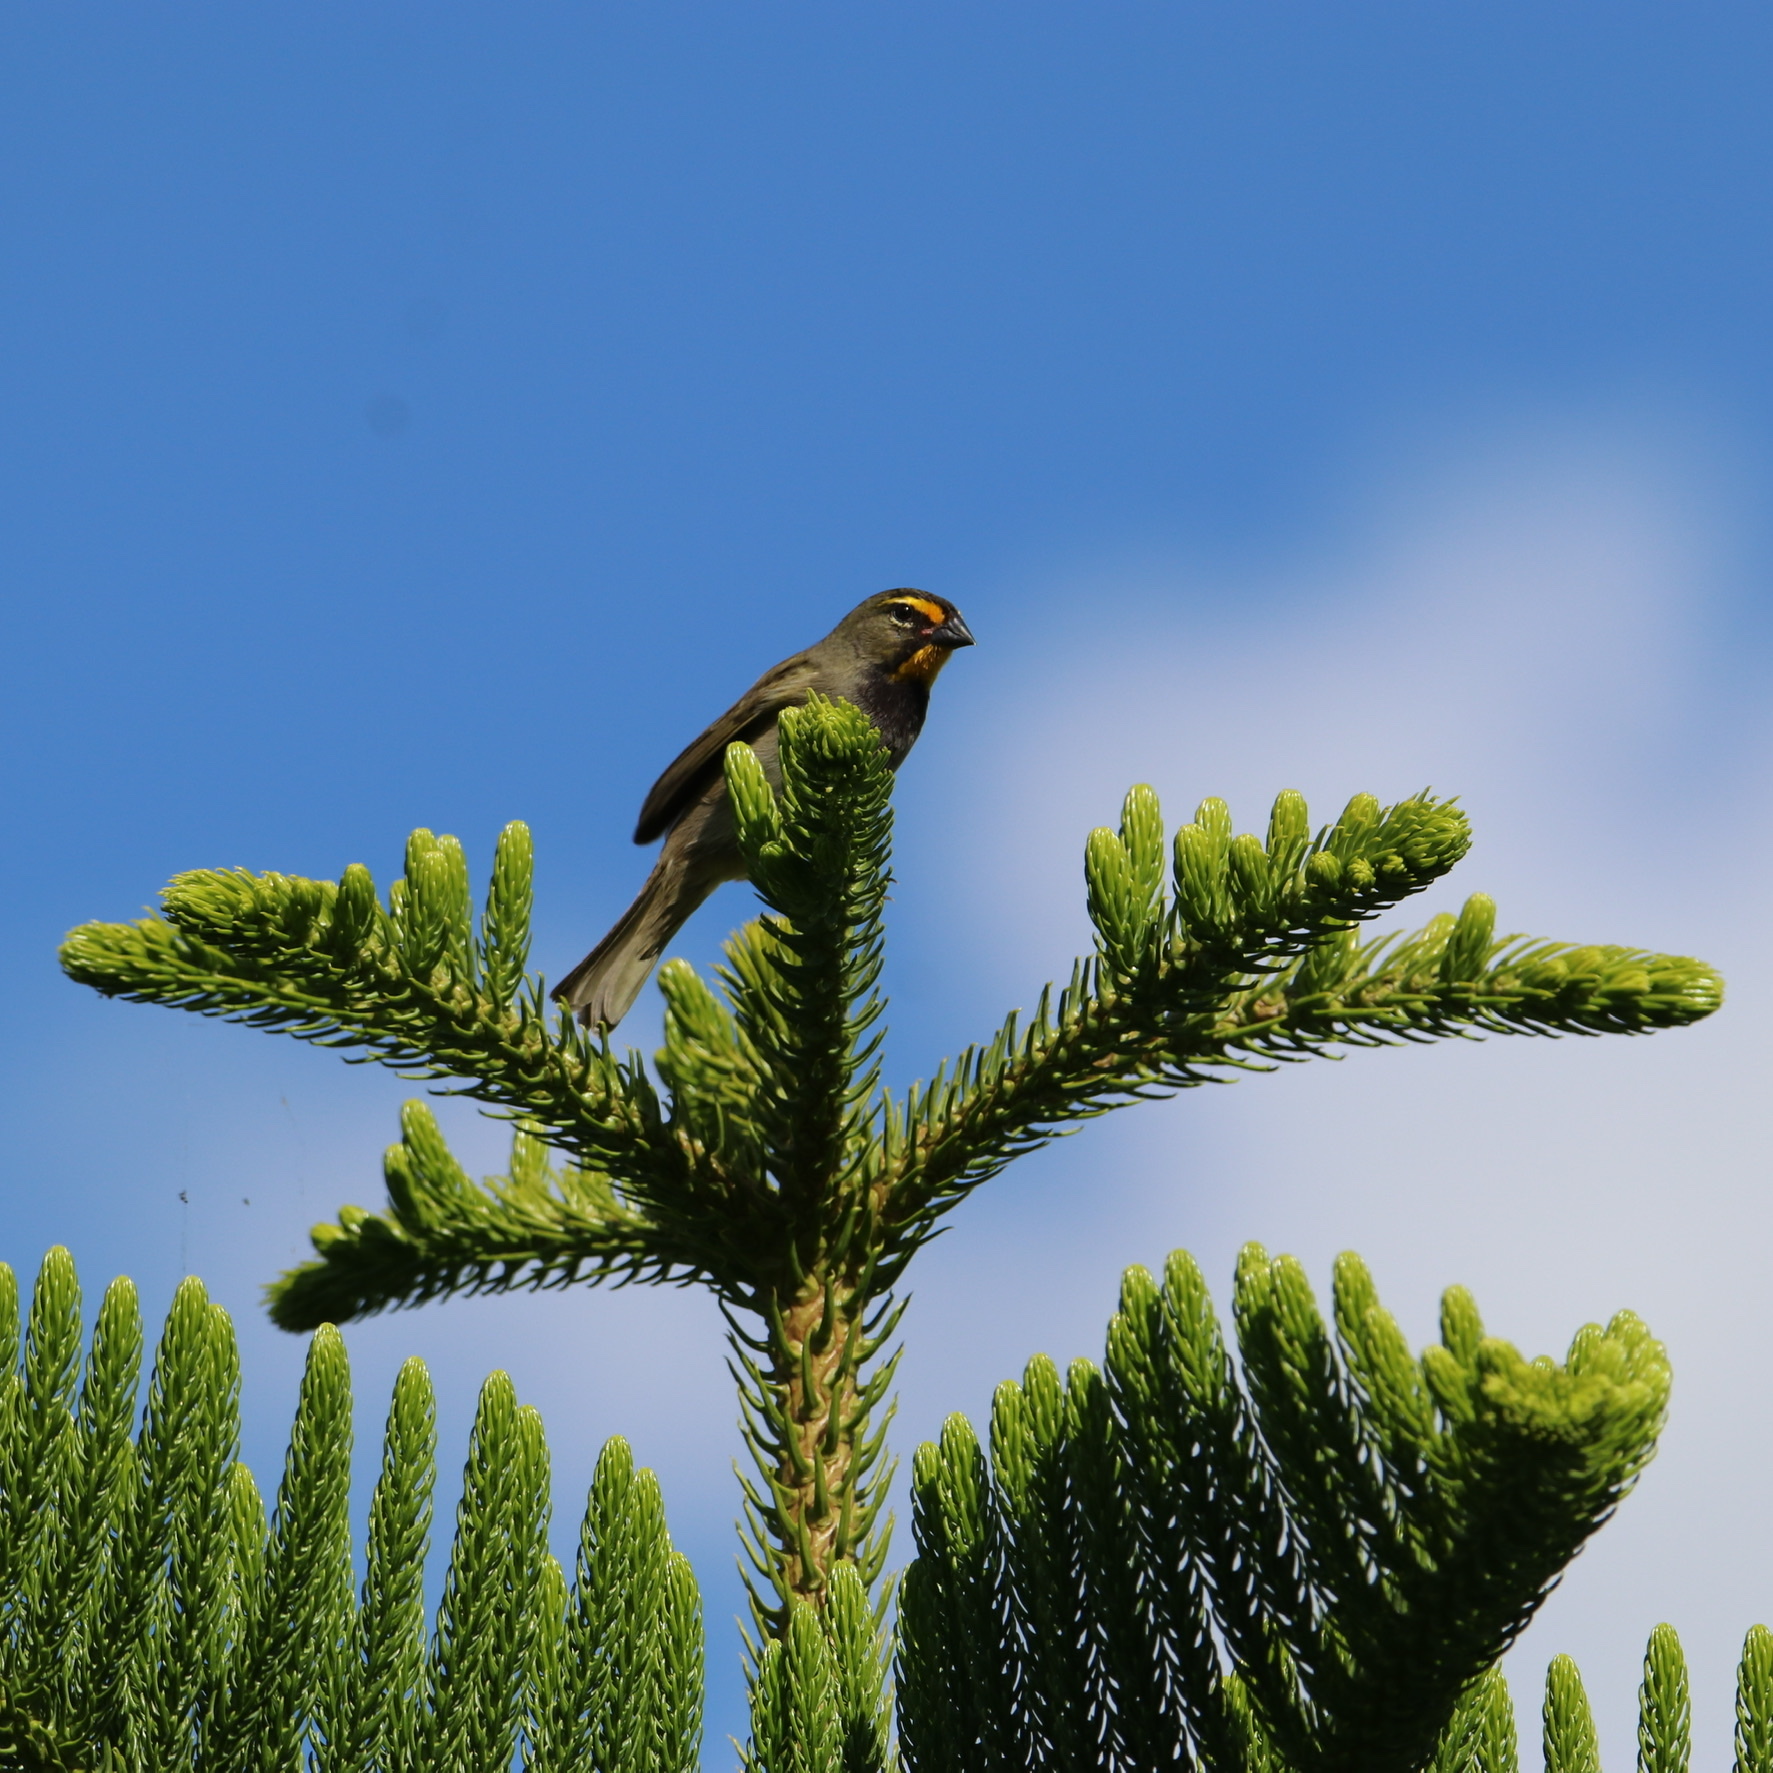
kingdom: Animalia
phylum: Chordata
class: Aves
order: Passeriformes
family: Thraupidae
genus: Tiaris
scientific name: Tiaris olivaceus
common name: Yellow-faced grassquit
